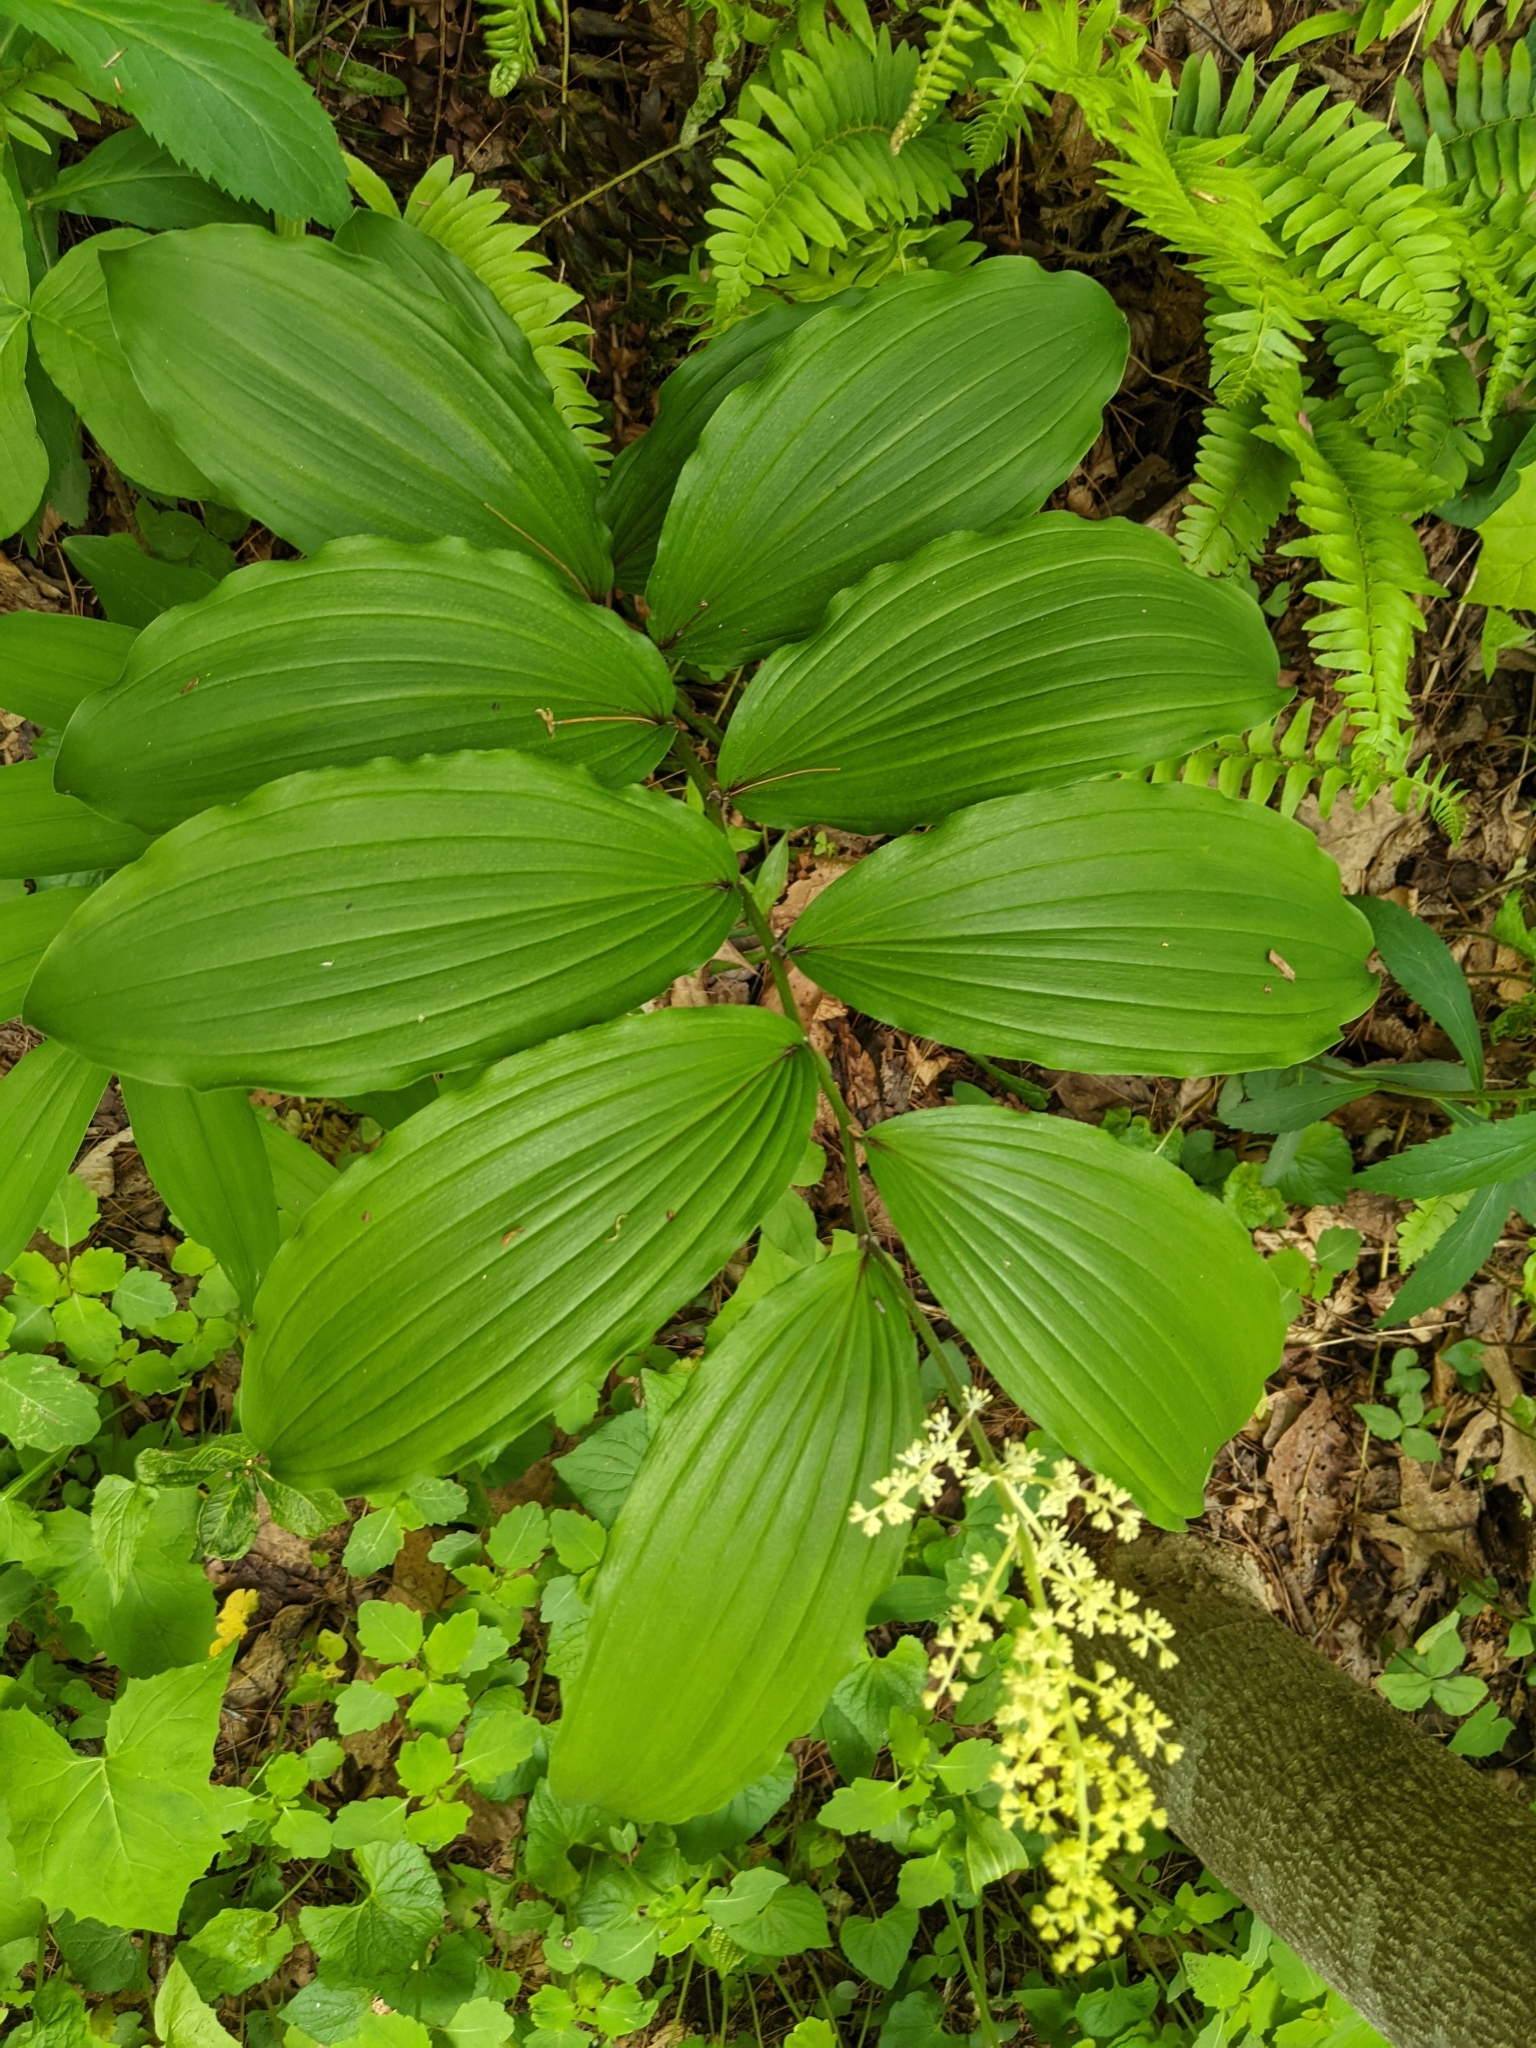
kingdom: Plantae
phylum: Tracheophyta
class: Liliopsida
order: Asparagales
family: Asparagaceae
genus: Maianthemum
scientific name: Maianthemum racemosum
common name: False spikenard
